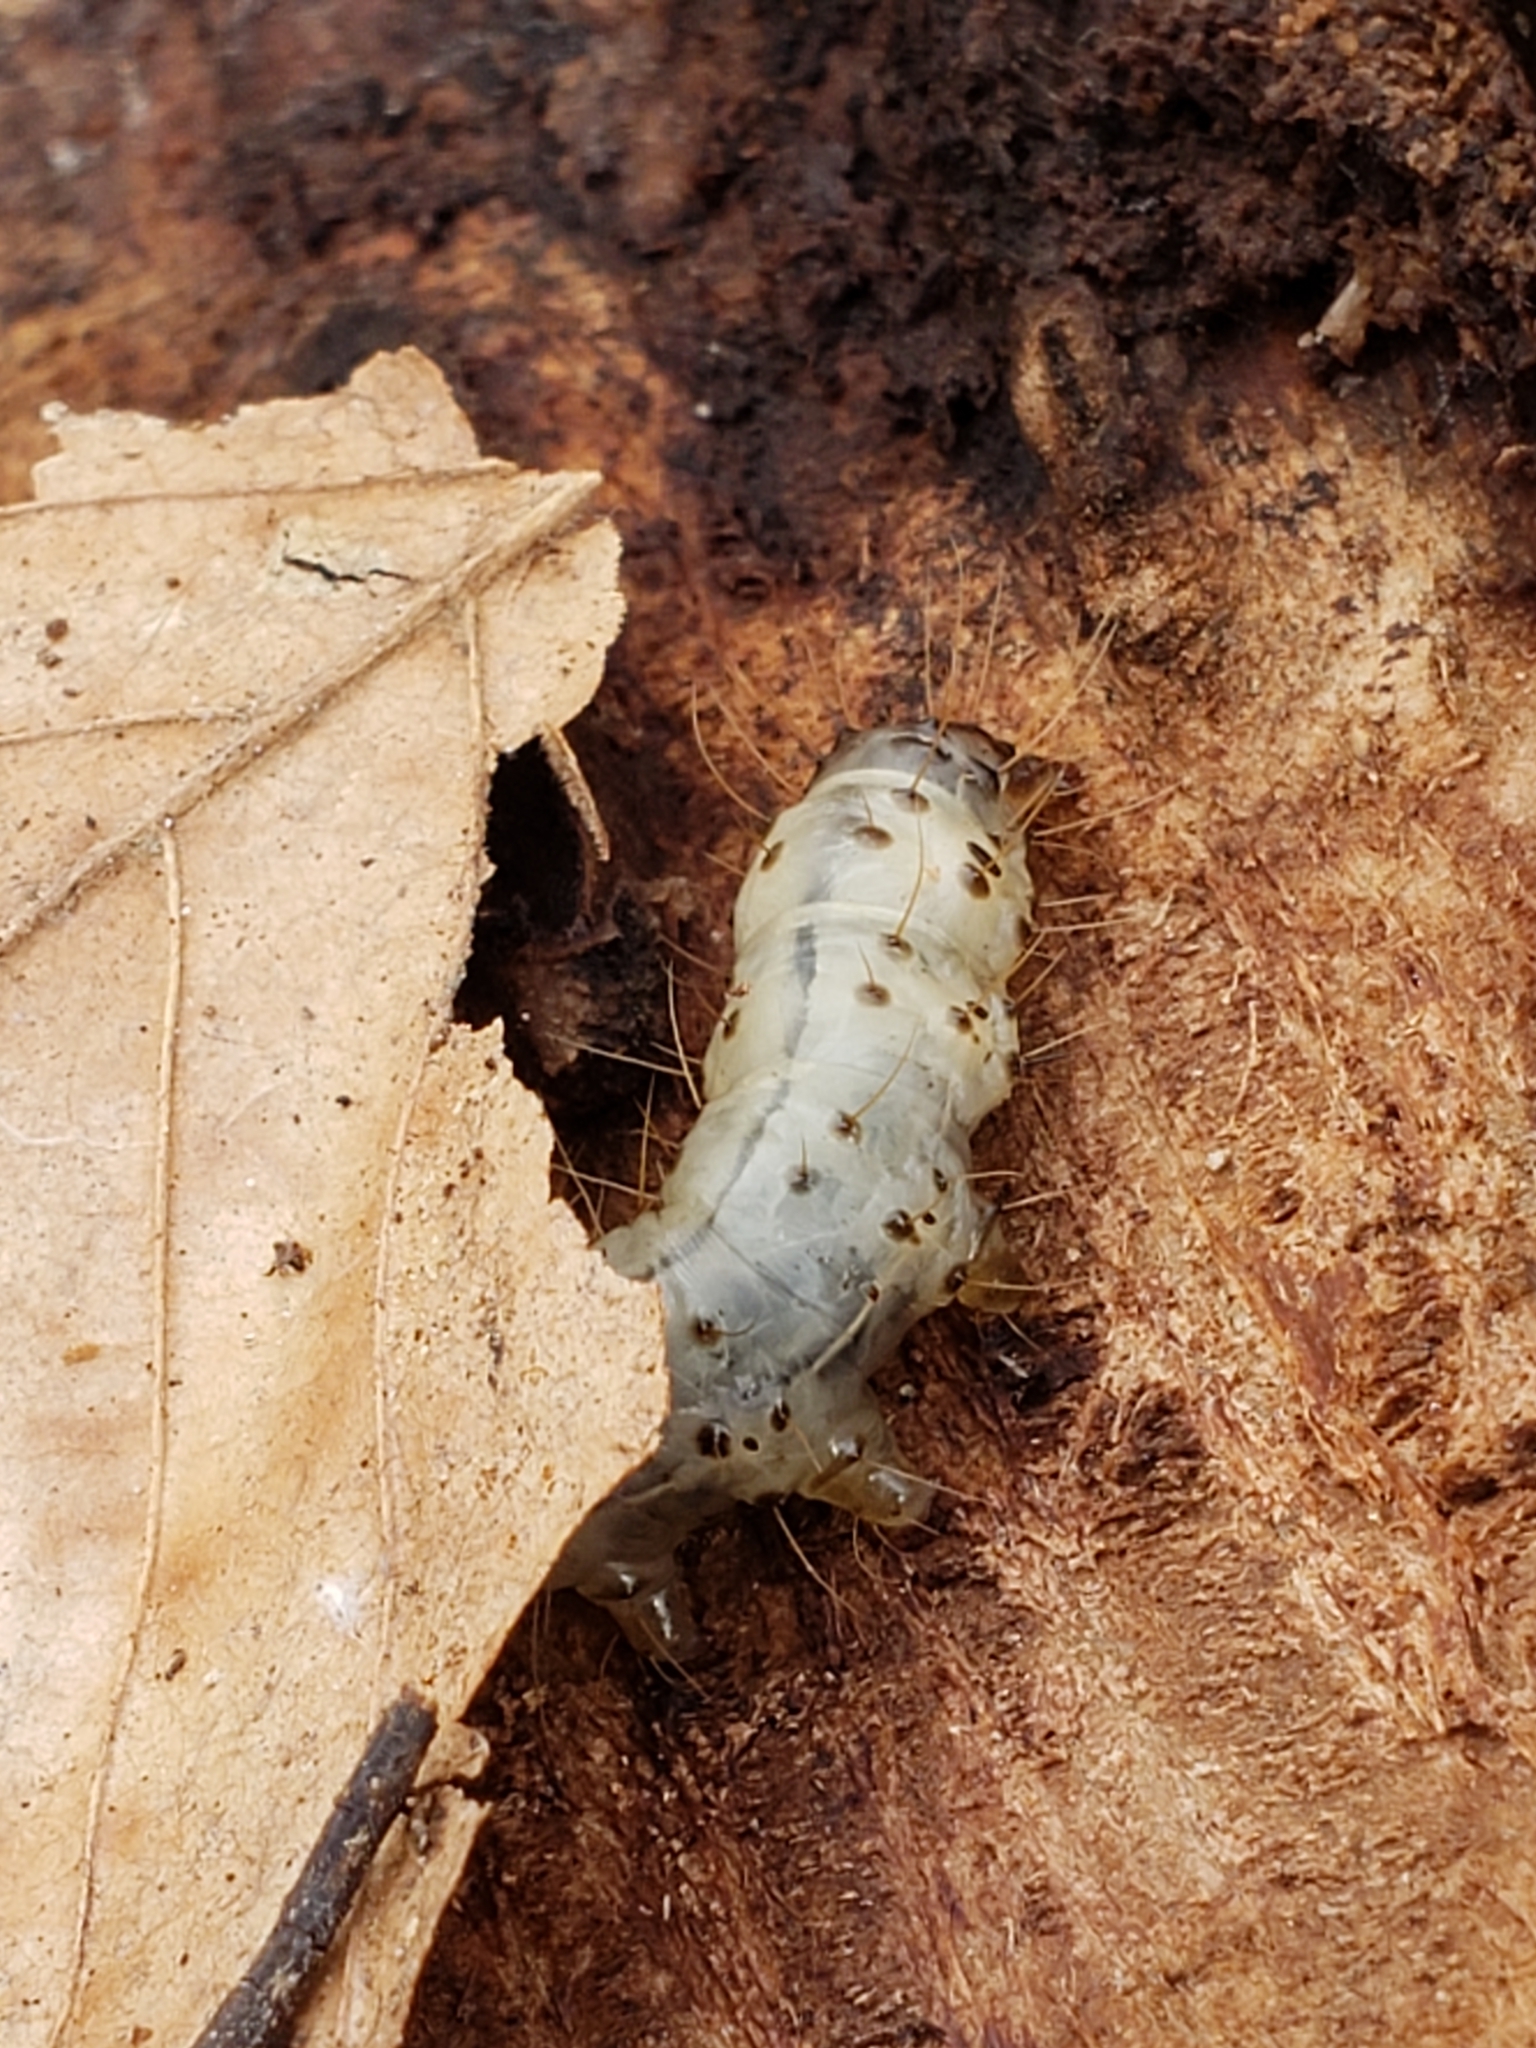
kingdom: Animalia
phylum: Arthropoda
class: Insecta
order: Lepidoptera
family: Erebidae
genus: Scolecocampa
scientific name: Scolecocampa liburna
